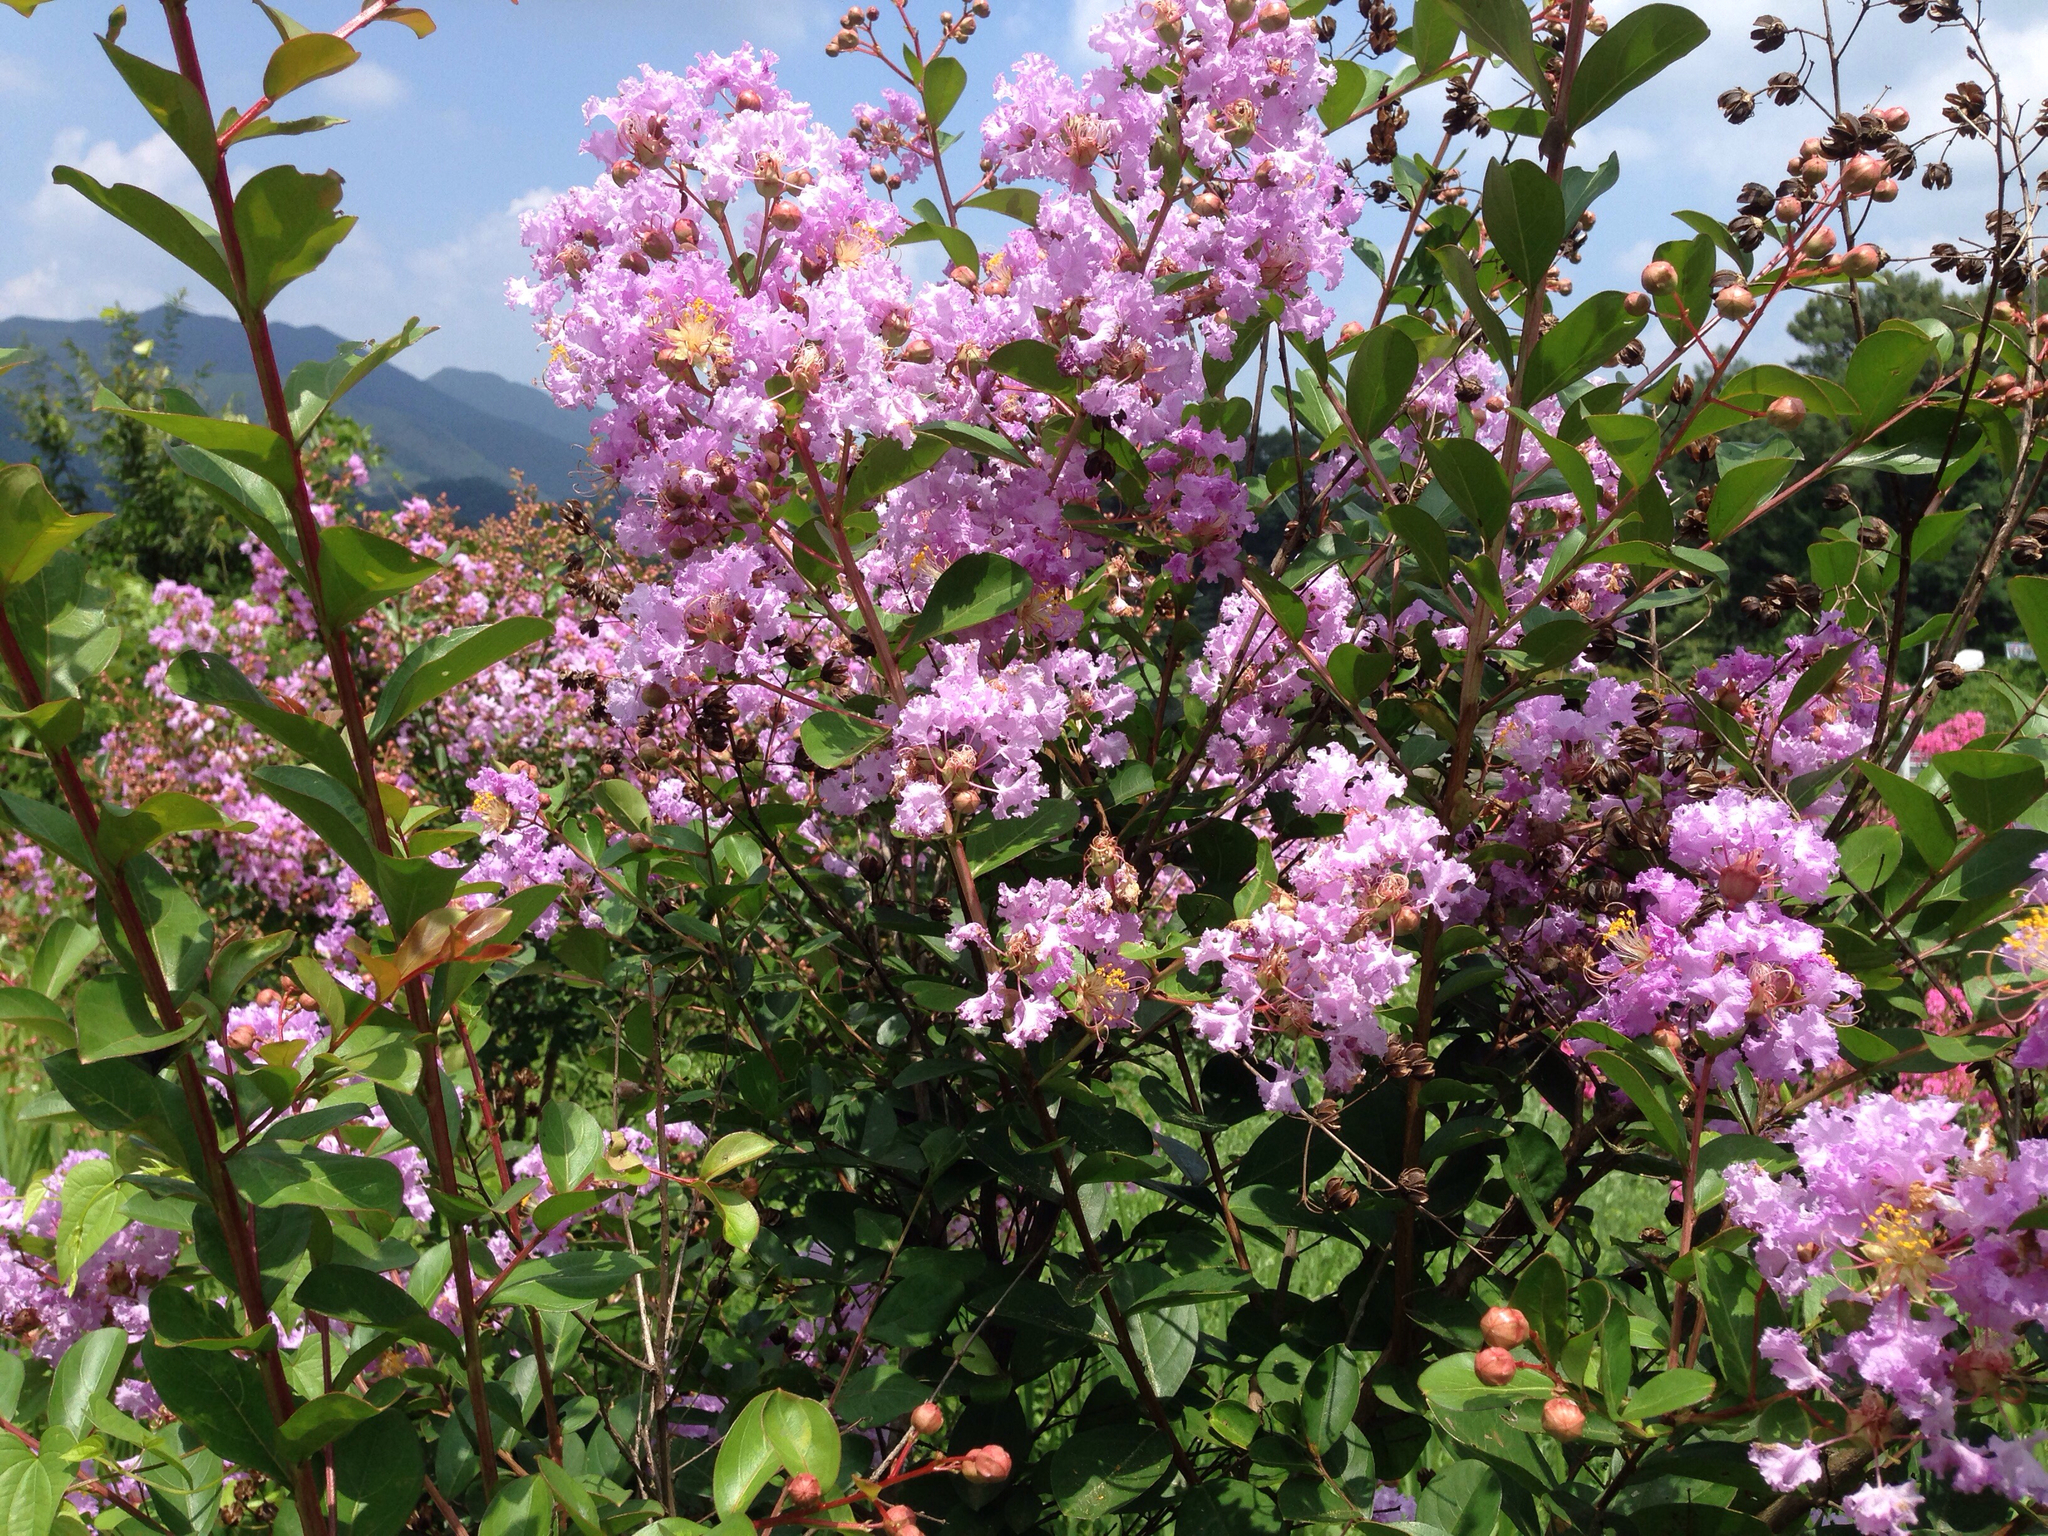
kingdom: Plantae
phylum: Tracheophyta
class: Magnoliopsida
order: Myrtales
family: Lythraceae
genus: Lagerstroemia
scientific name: Lagerstroemia indica
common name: Crape-myrtle
